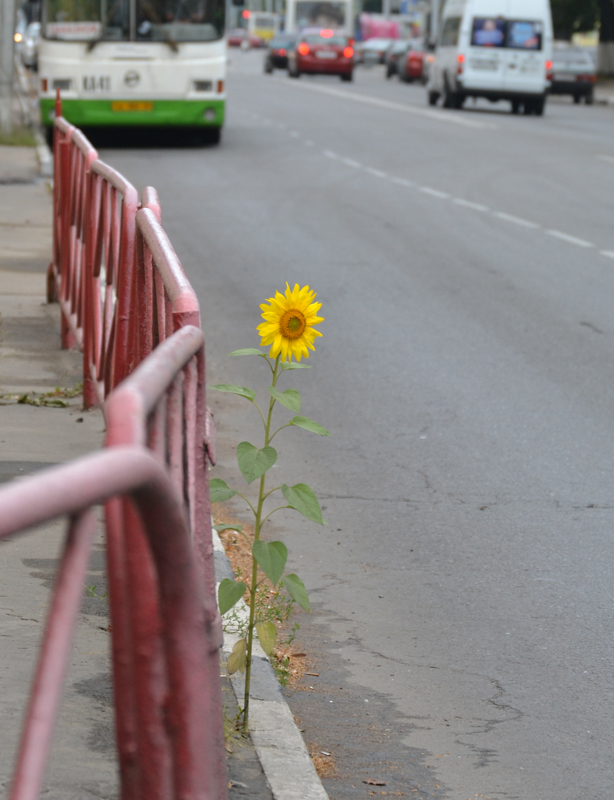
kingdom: Plantae
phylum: Tracheophyta
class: Magnoliopsida
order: Asterales
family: Asteraceae
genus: Helianthus
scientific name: Helianthus annuus
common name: Sunflower
